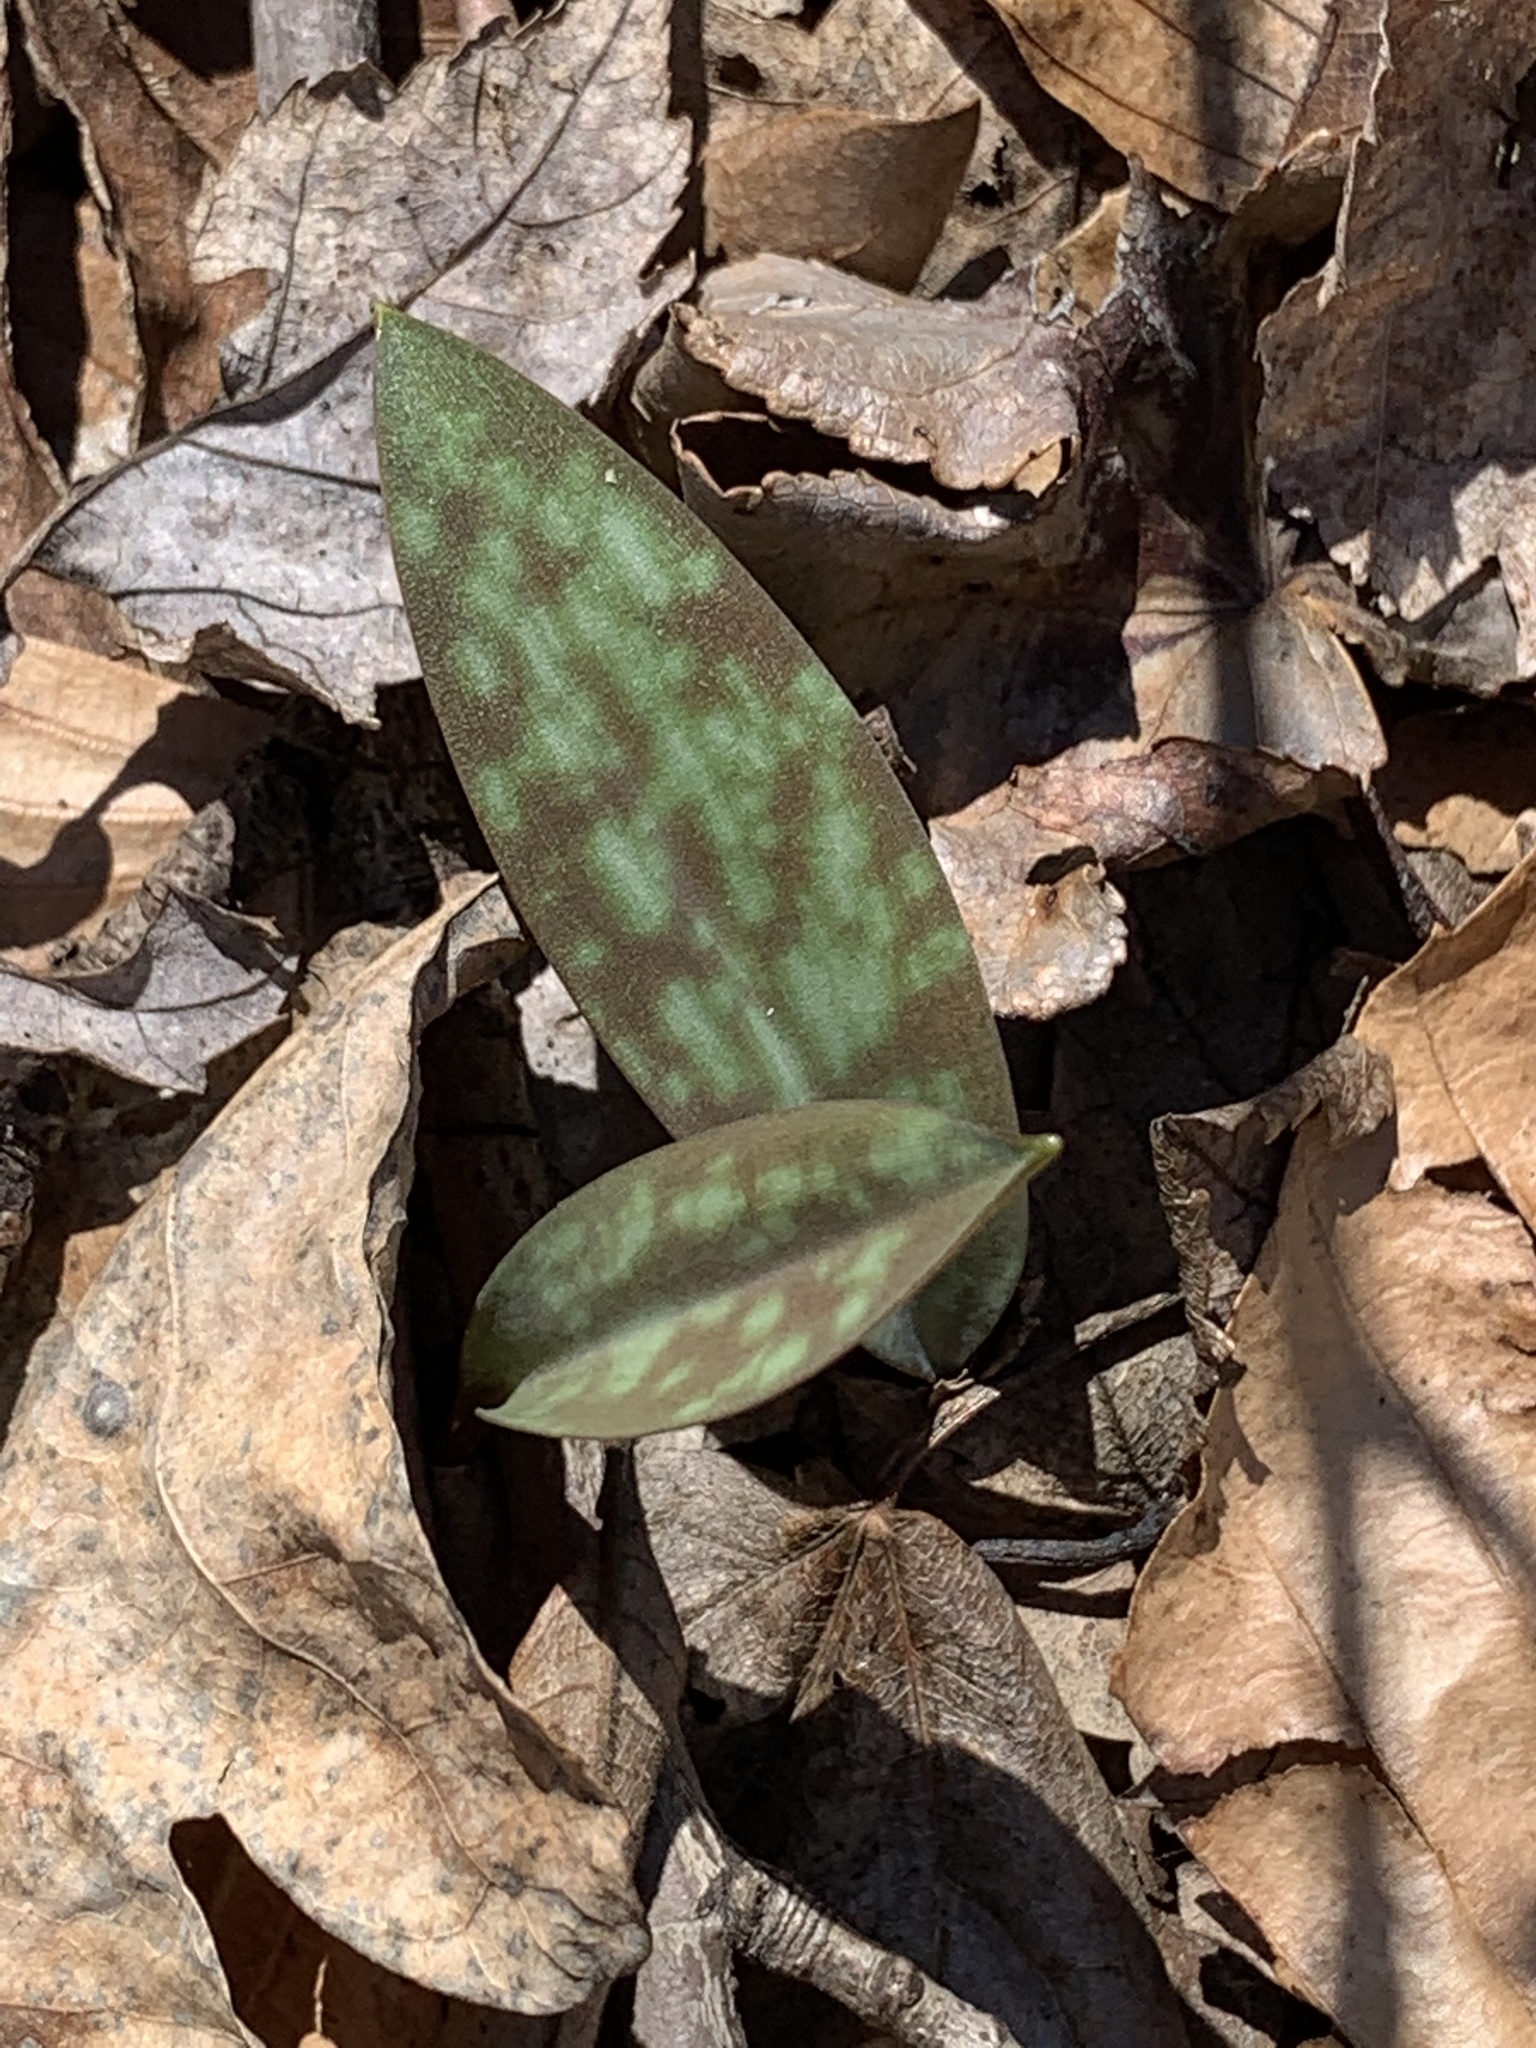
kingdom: Plantae
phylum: Tracheophyta
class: Liliopsida
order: Liliales
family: Liliaceae
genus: Erythronium
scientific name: Erythronium americanum
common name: Yellow adder's-tongue
